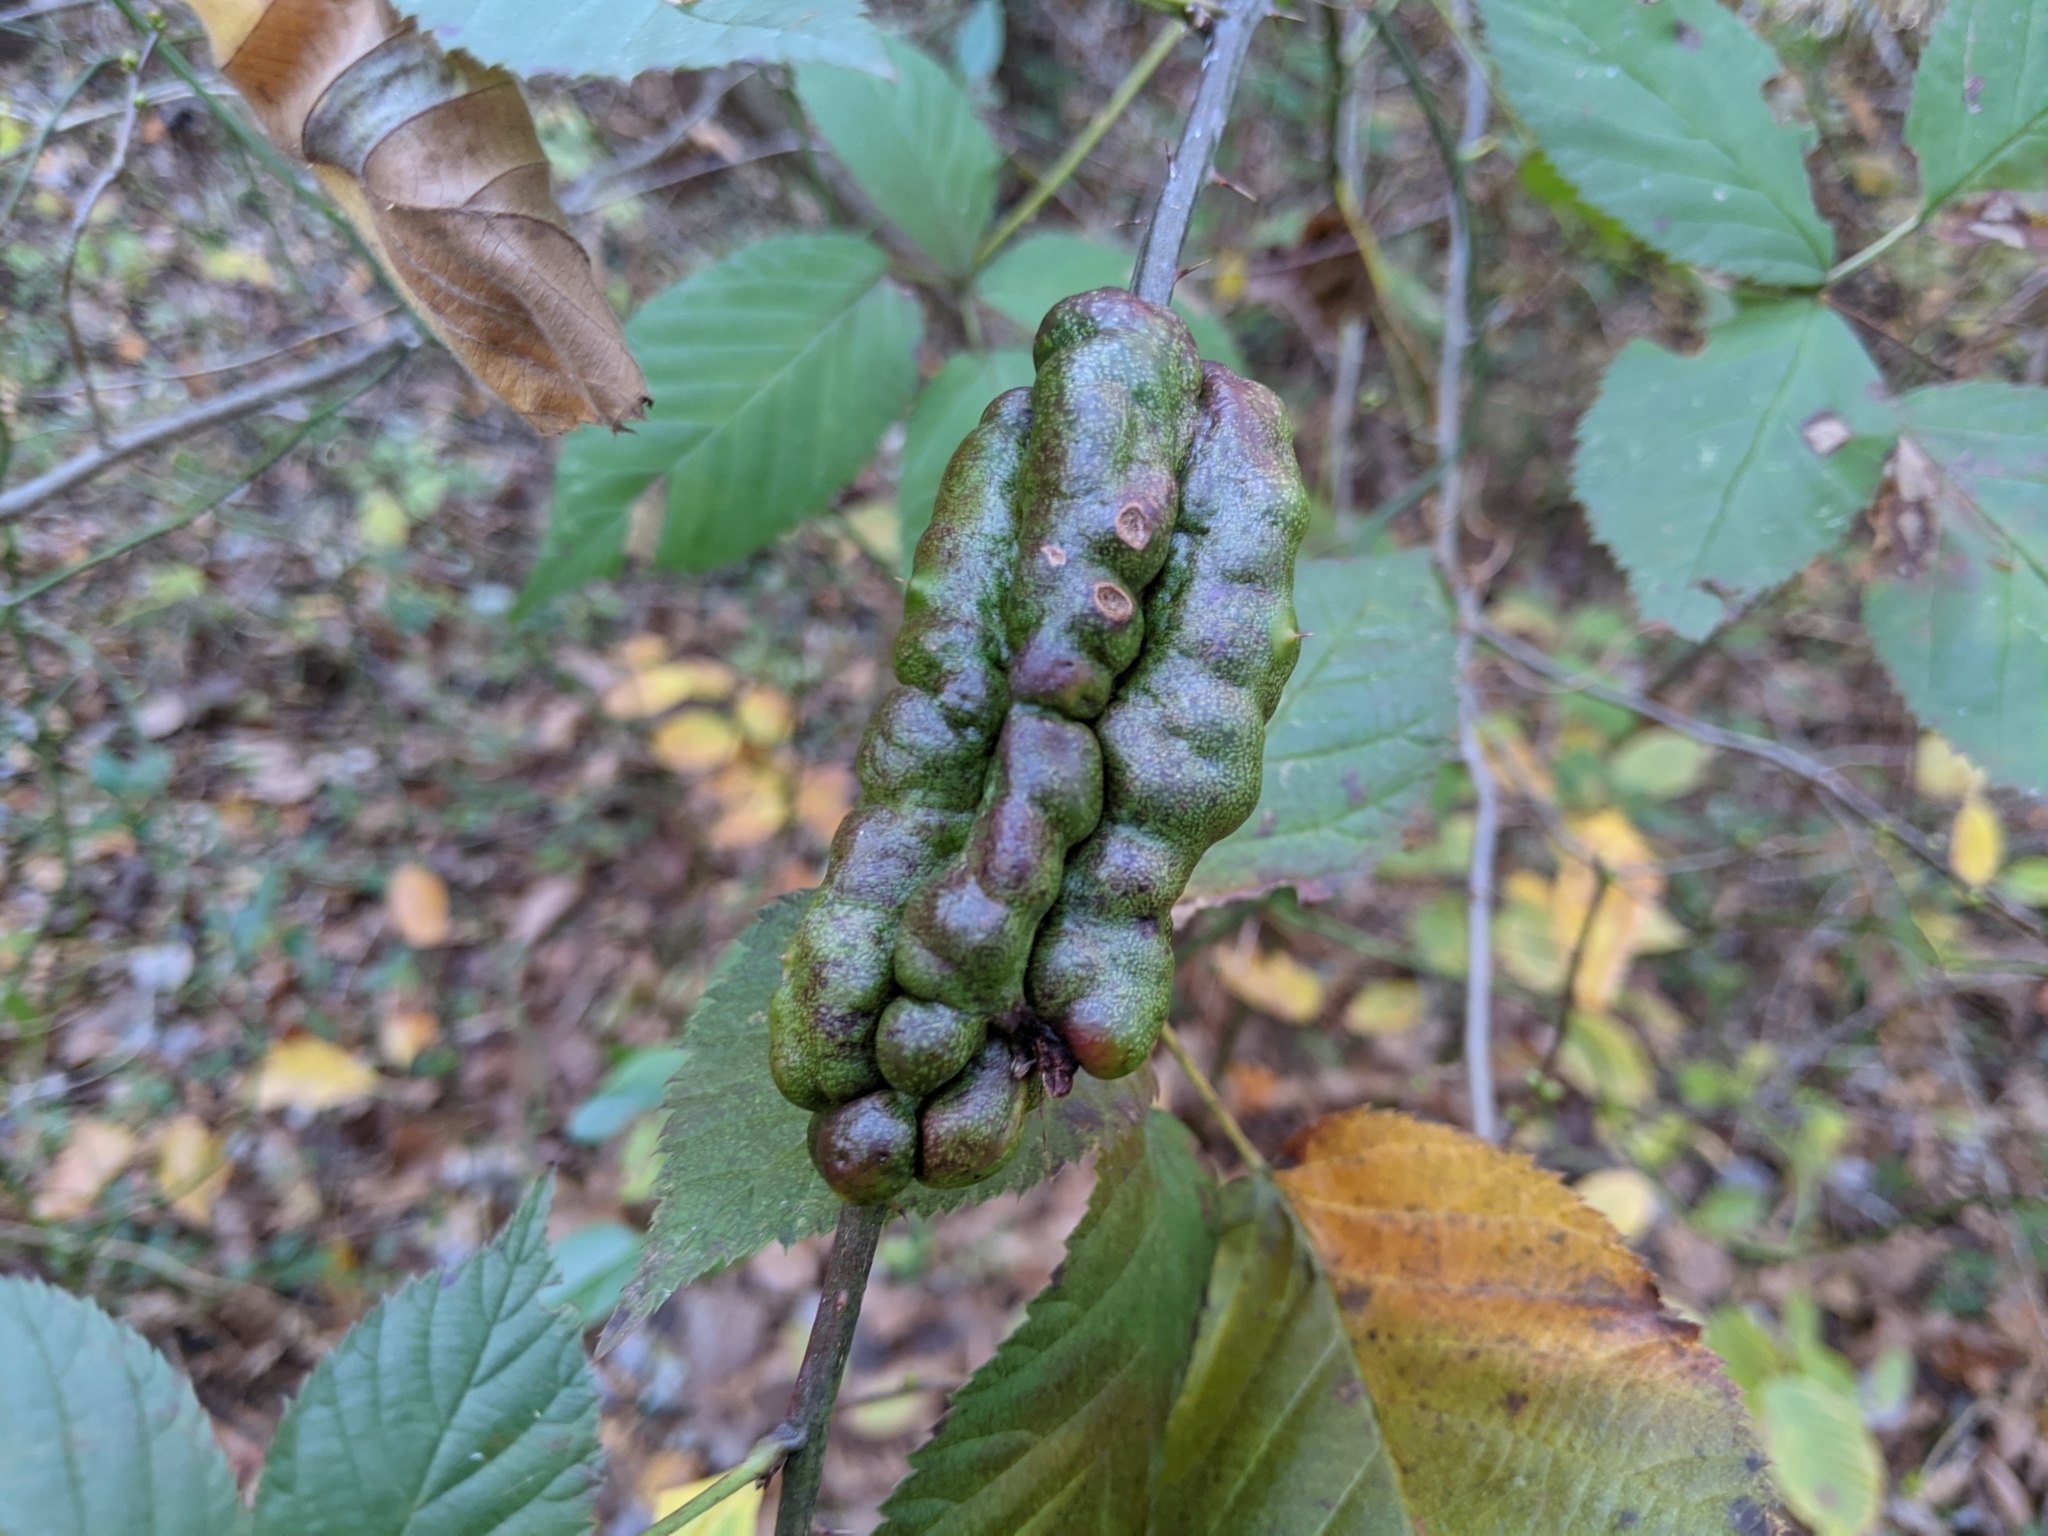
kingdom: Animalia
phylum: Arthropoda
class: Insecta
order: Hymenoptera
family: Cynipidae
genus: Diastrophus
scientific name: Diastrophus
